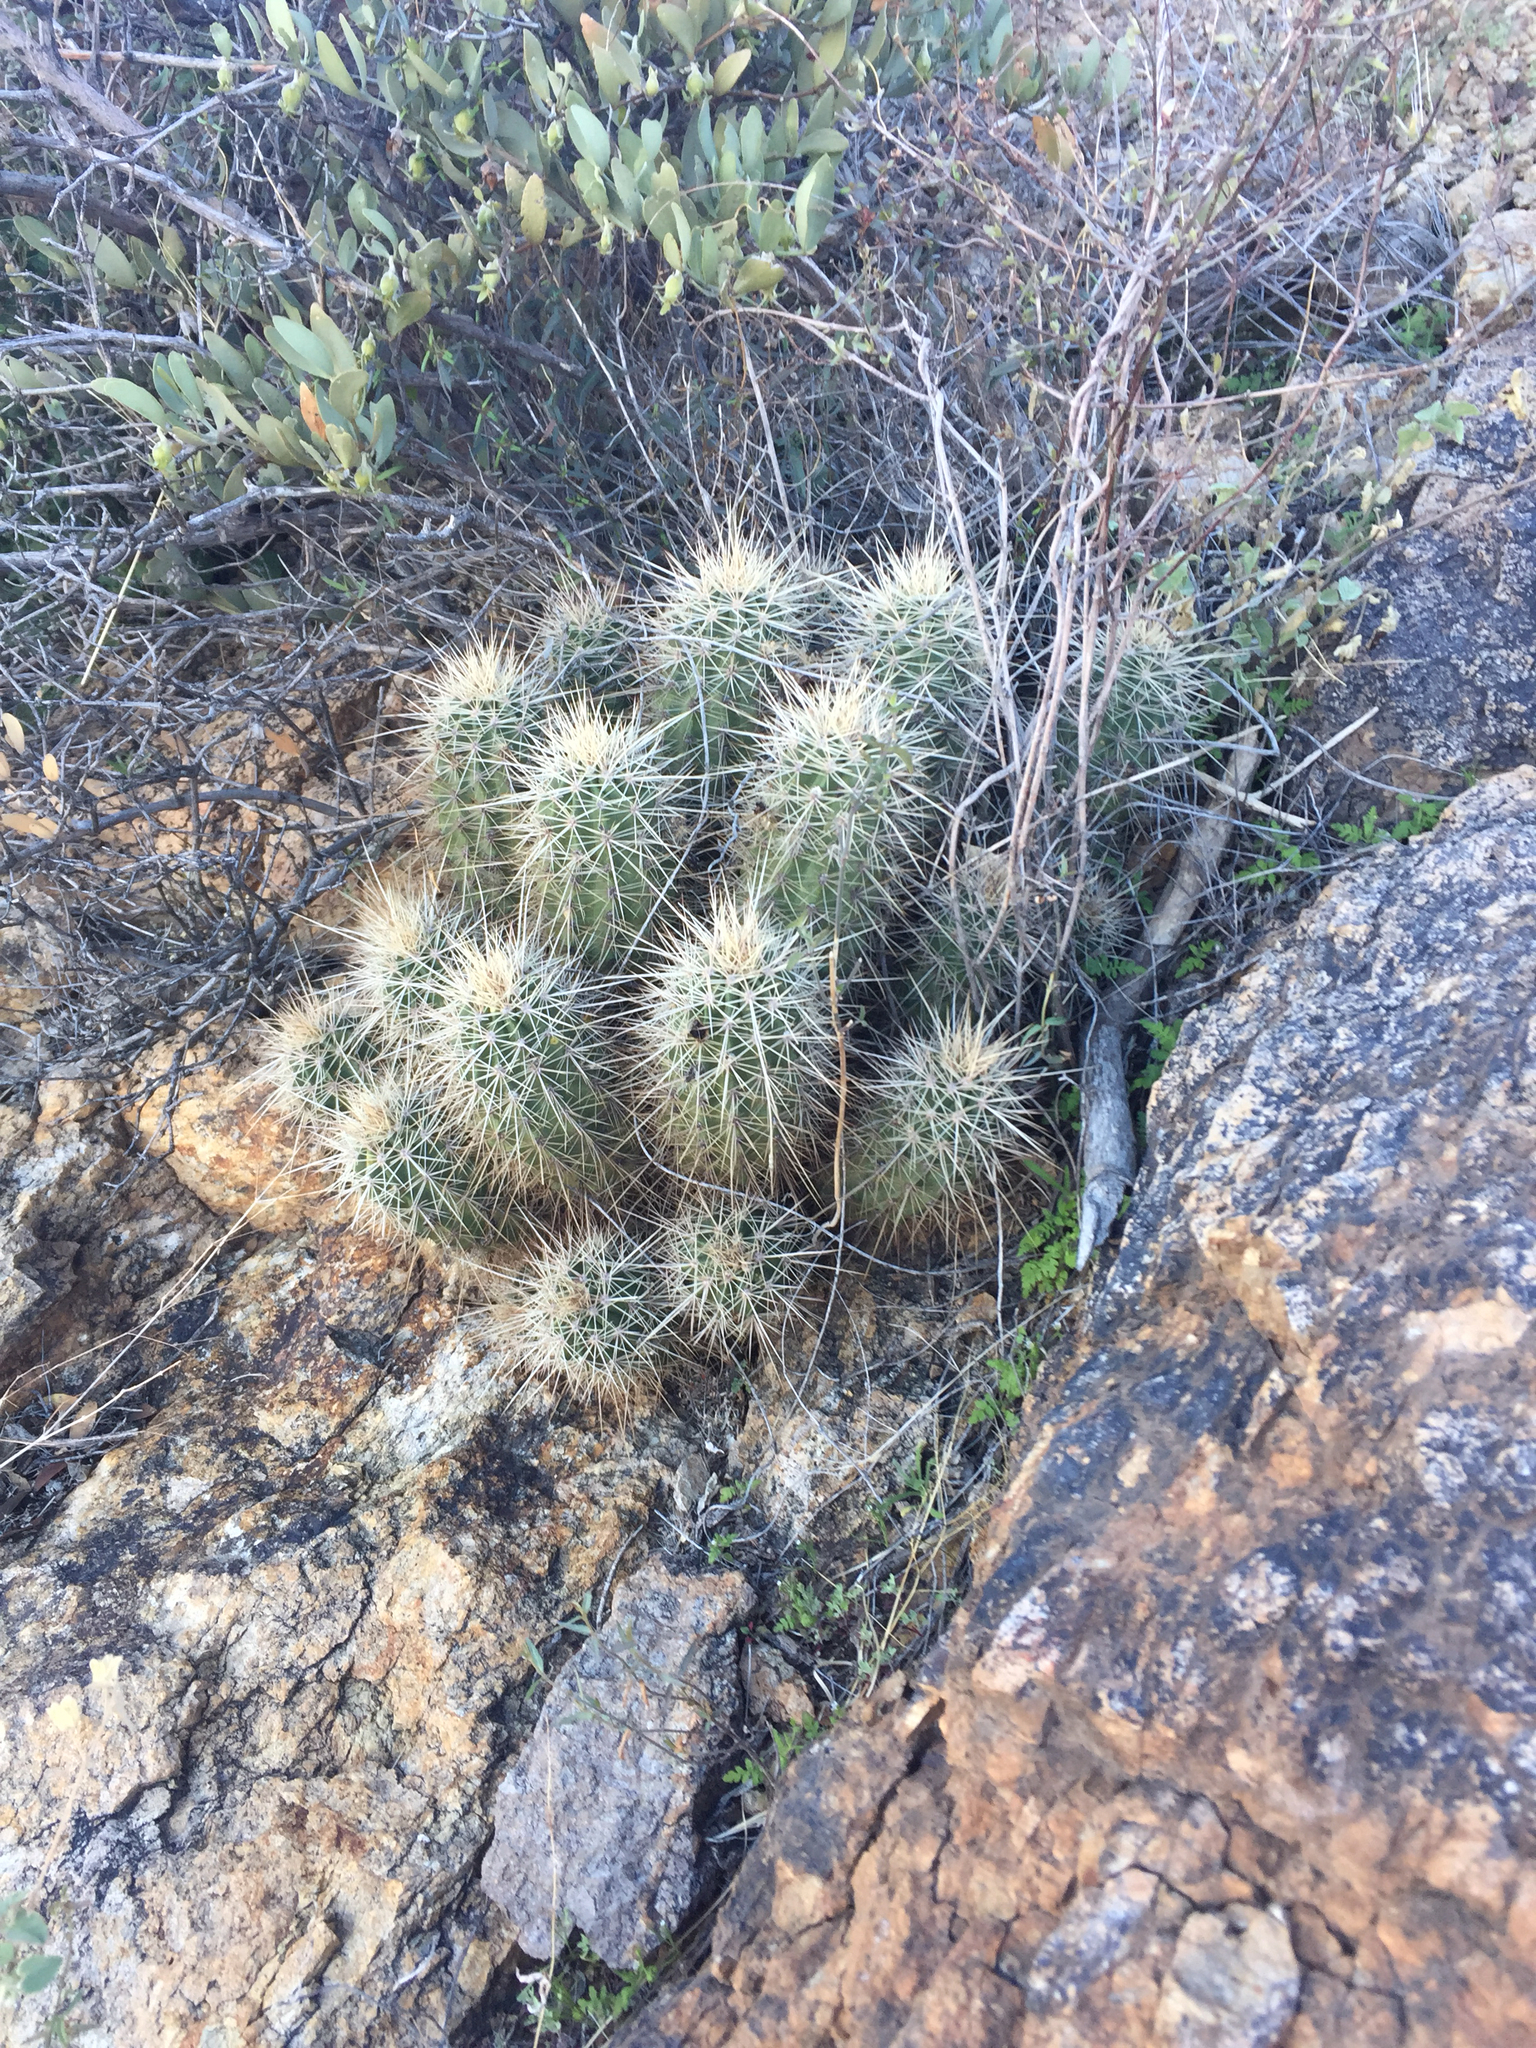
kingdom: Plantae
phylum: Tracheophyta
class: Magnoliopsida
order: Caryophyllales
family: Cactaceae
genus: Echinocereus
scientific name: Echinocereus coccineus
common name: Scarlet hedgehog cactus
